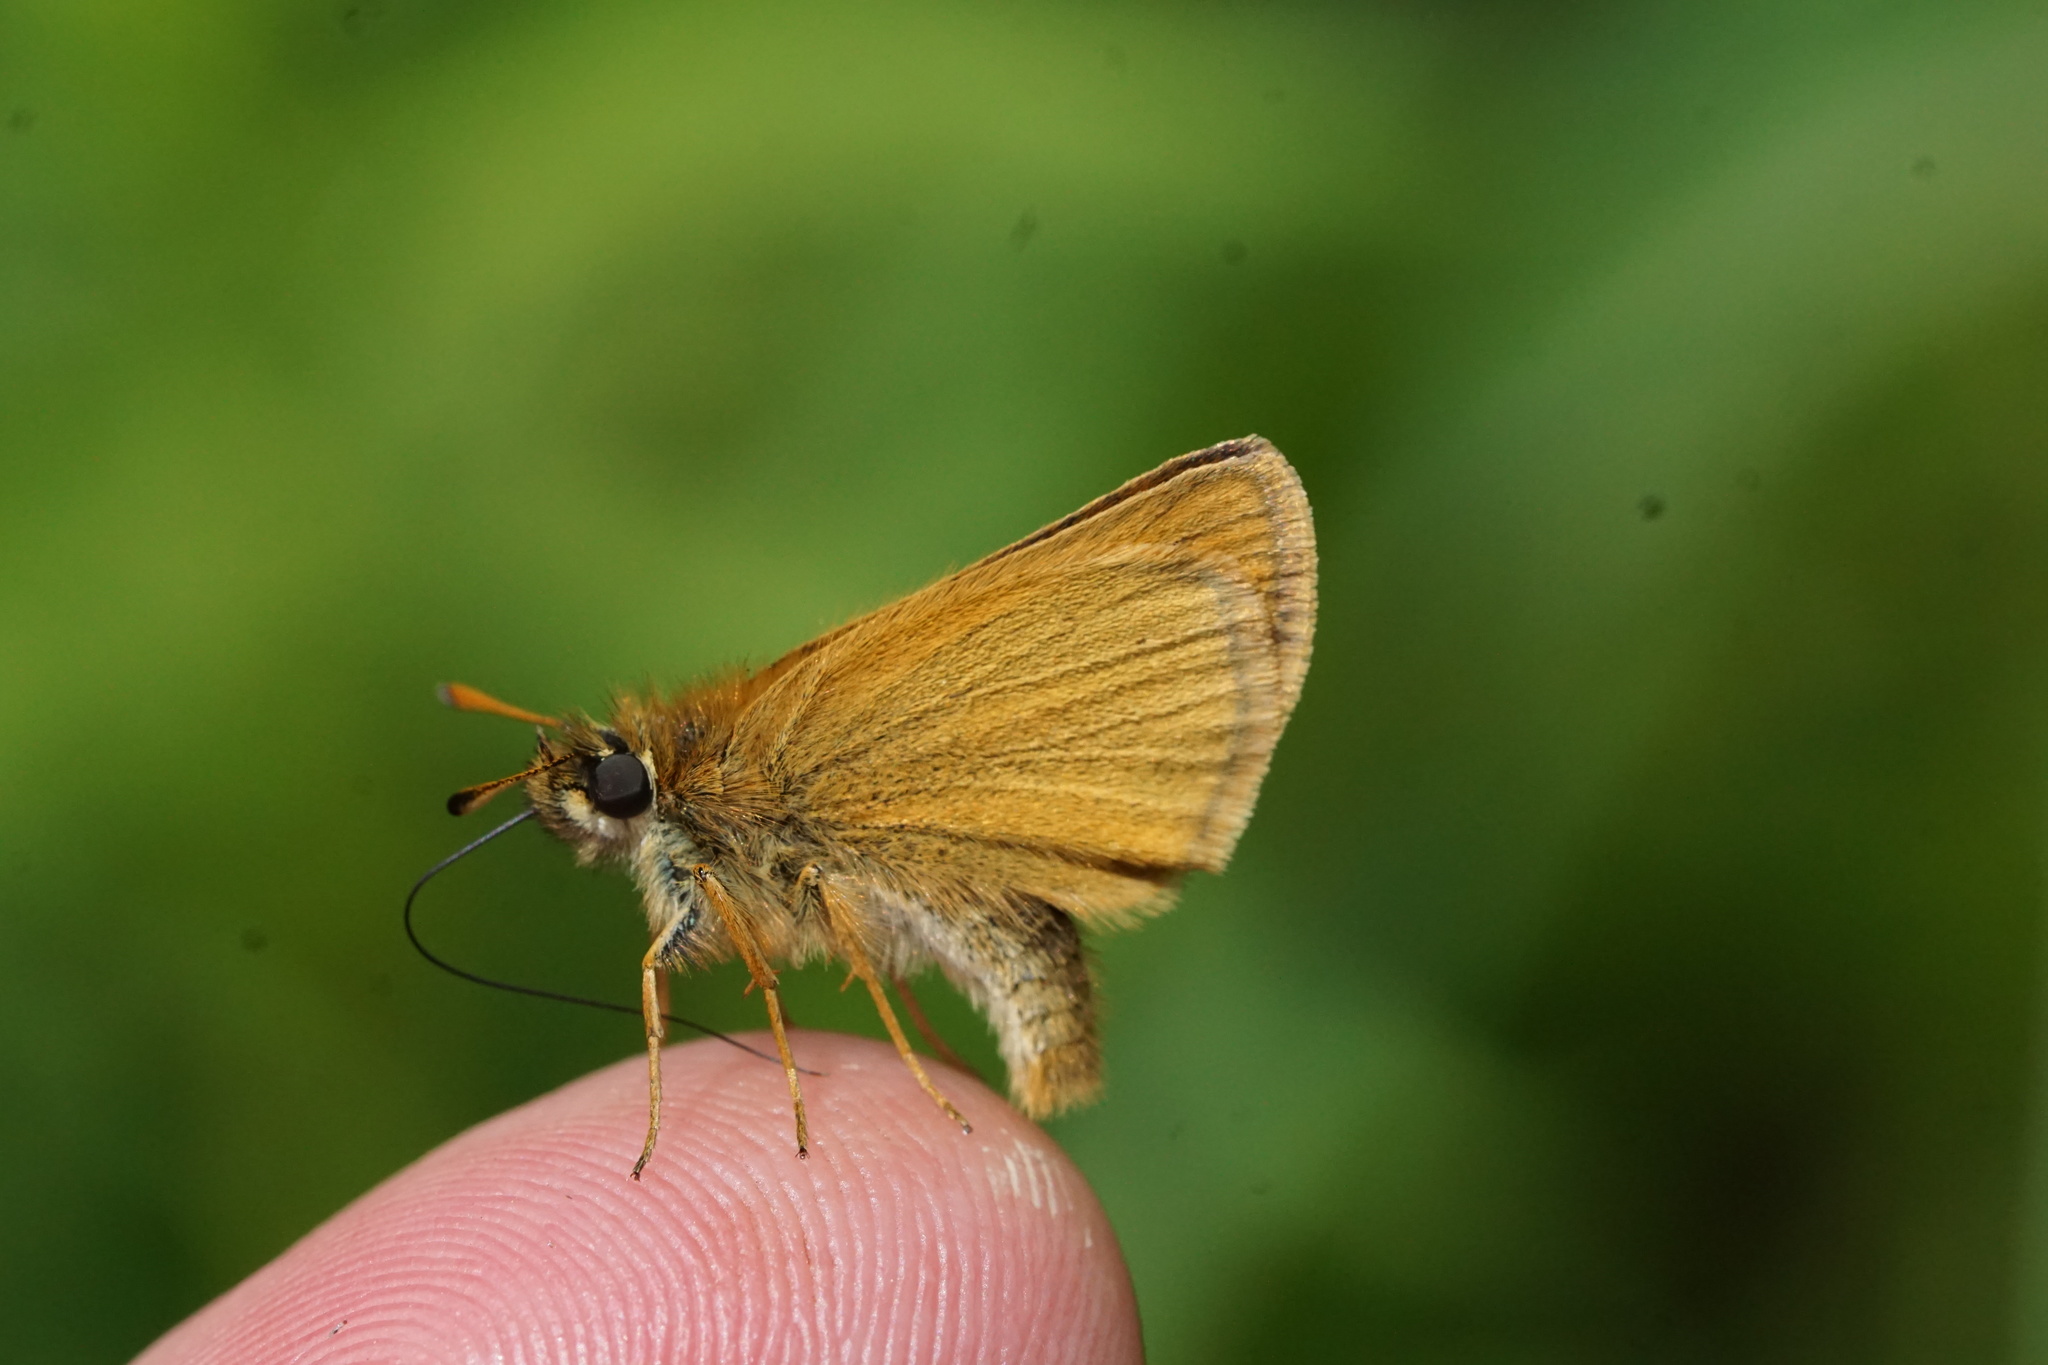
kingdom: Animalia
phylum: Arthropoda
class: Insecta
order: Lepidoptera
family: Hesperiidae
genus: Thymelicus
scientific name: Thymelicus lineola
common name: Essex skipper
